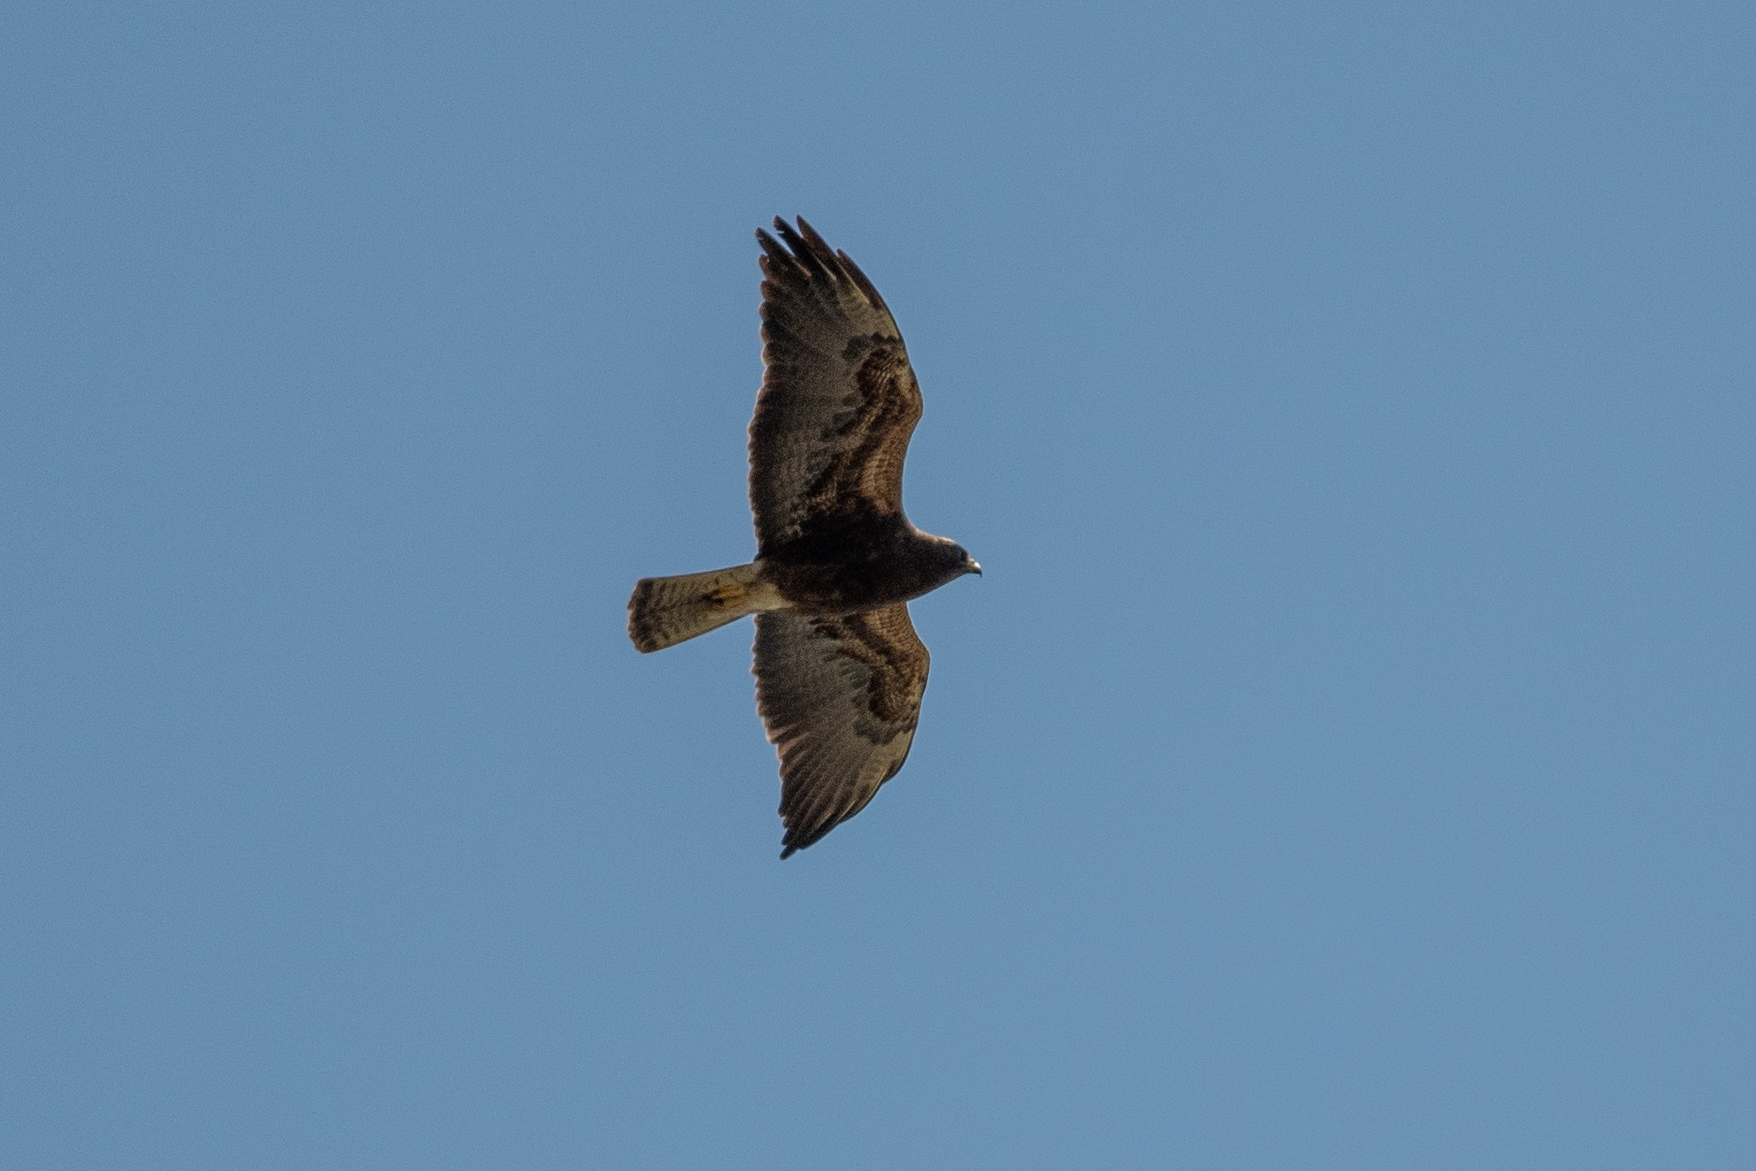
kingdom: Animalia
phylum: Chordata
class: Aves
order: Accipitriformes
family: Accipitridae
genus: Buteo
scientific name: Buteo swainsoni
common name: Swainson's hawk
